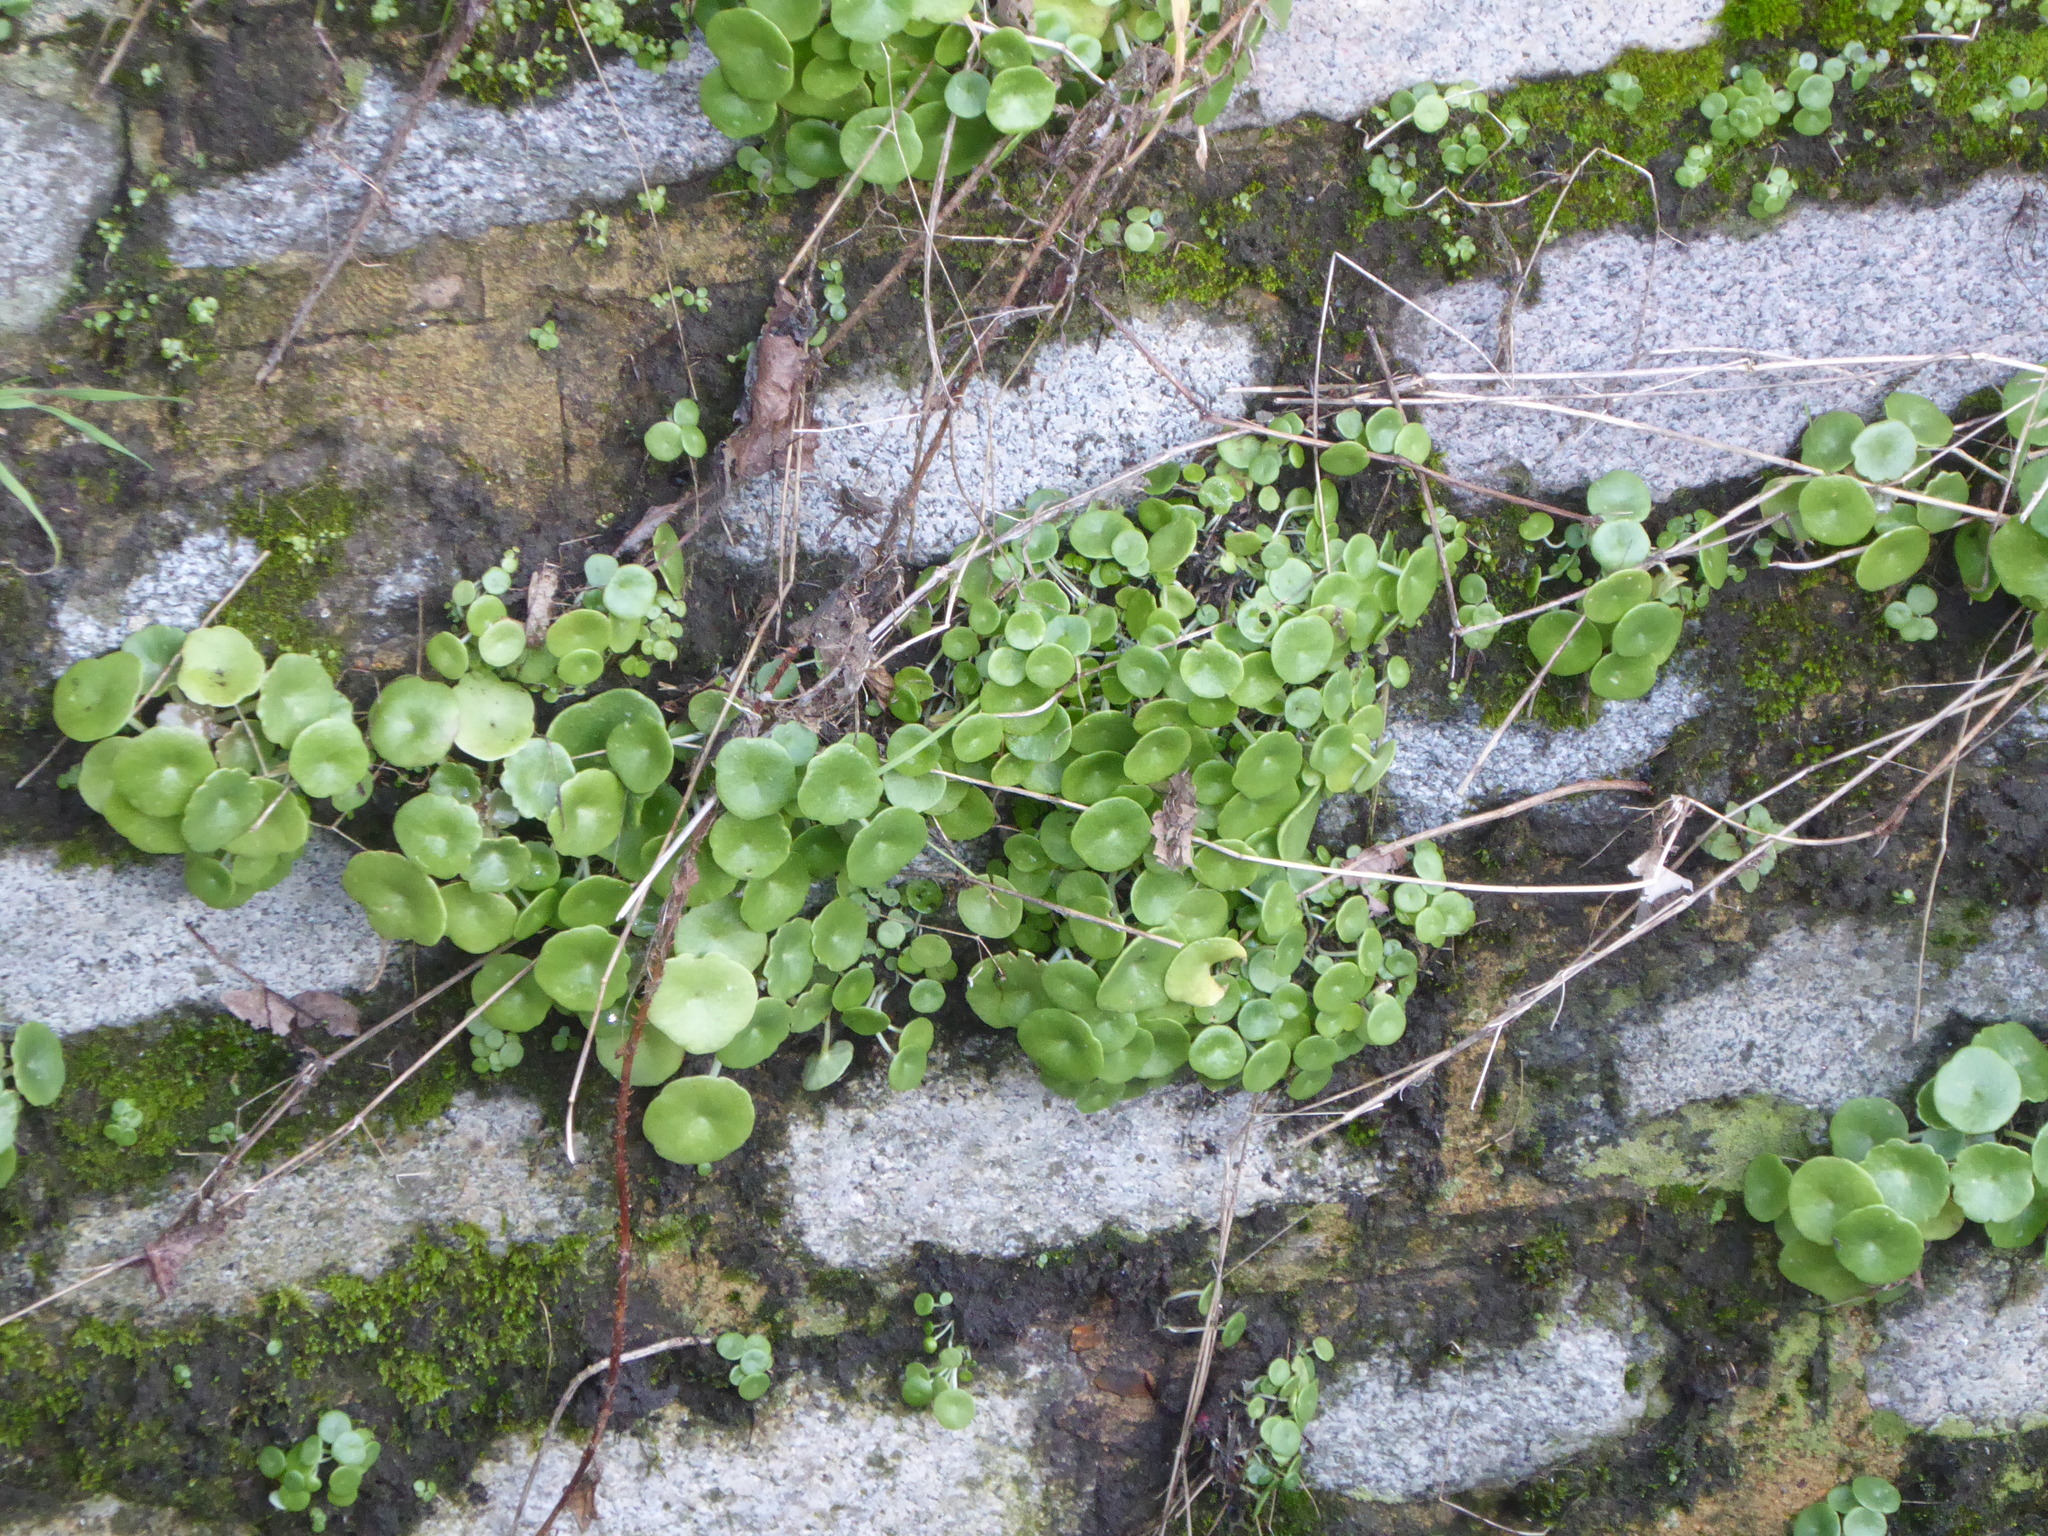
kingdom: Plantae
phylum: Tracheophyta
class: Magnoliopsida
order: Saxifragales
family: Crassulaceae
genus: Umbilicus
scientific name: Umbilicus rupestris
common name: Navelwort
